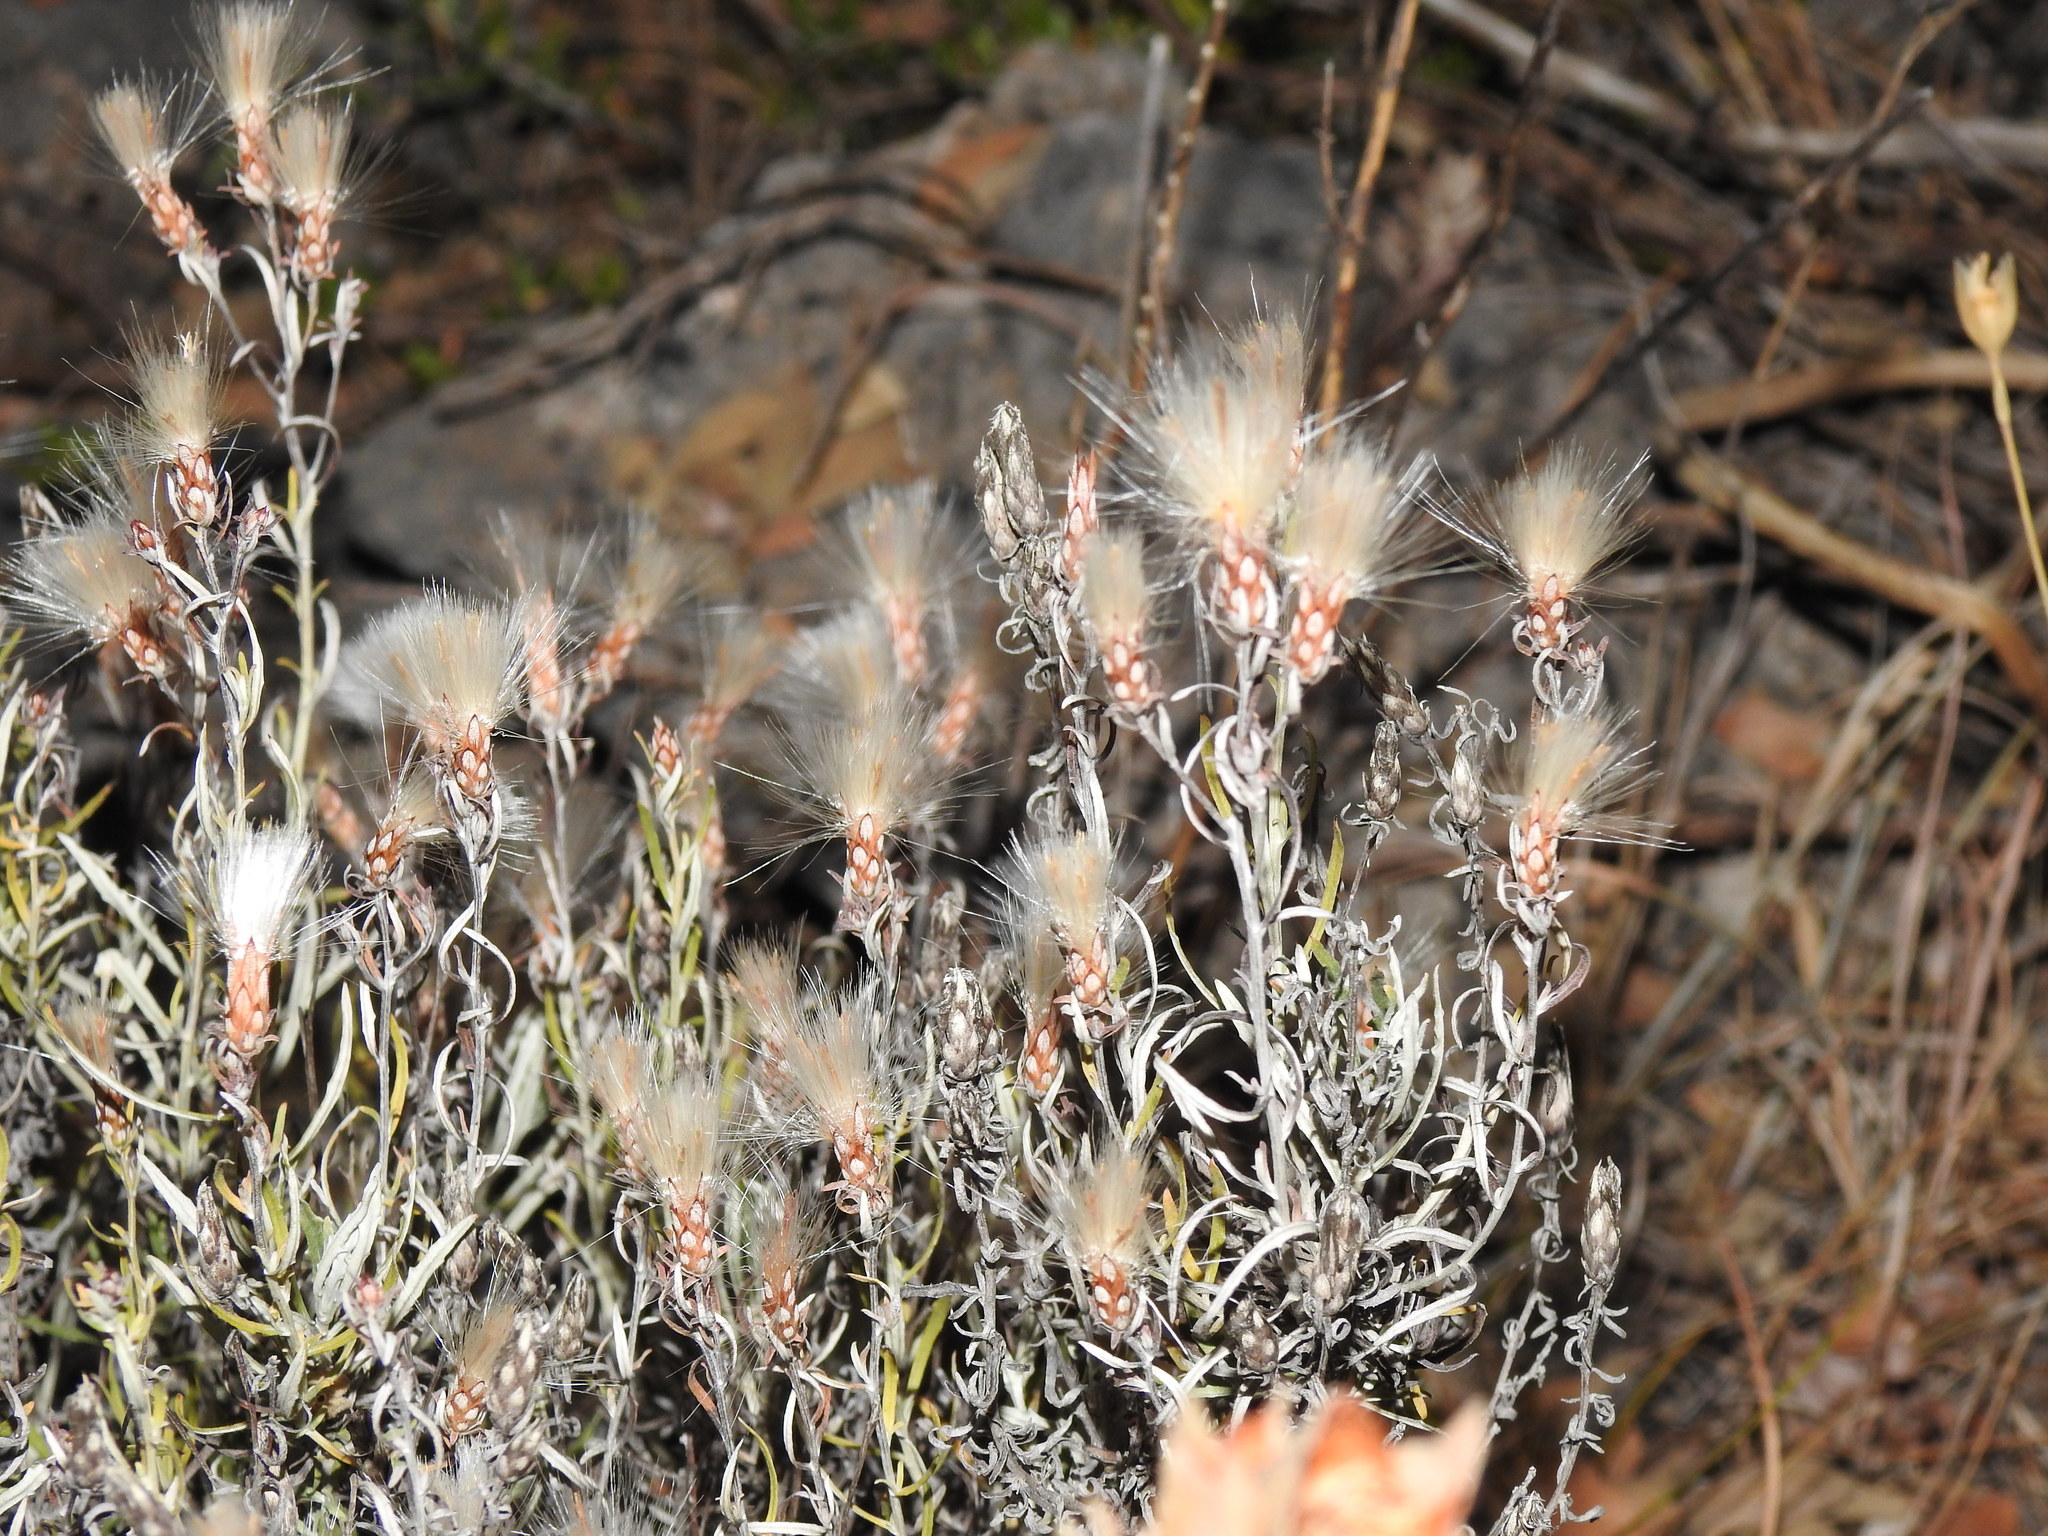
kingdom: Plantae
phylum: Tracheophyta
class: Magnoliopsida
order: Asterales
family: Asteraceae
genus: Staehelina
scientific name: Staehelina dubia
